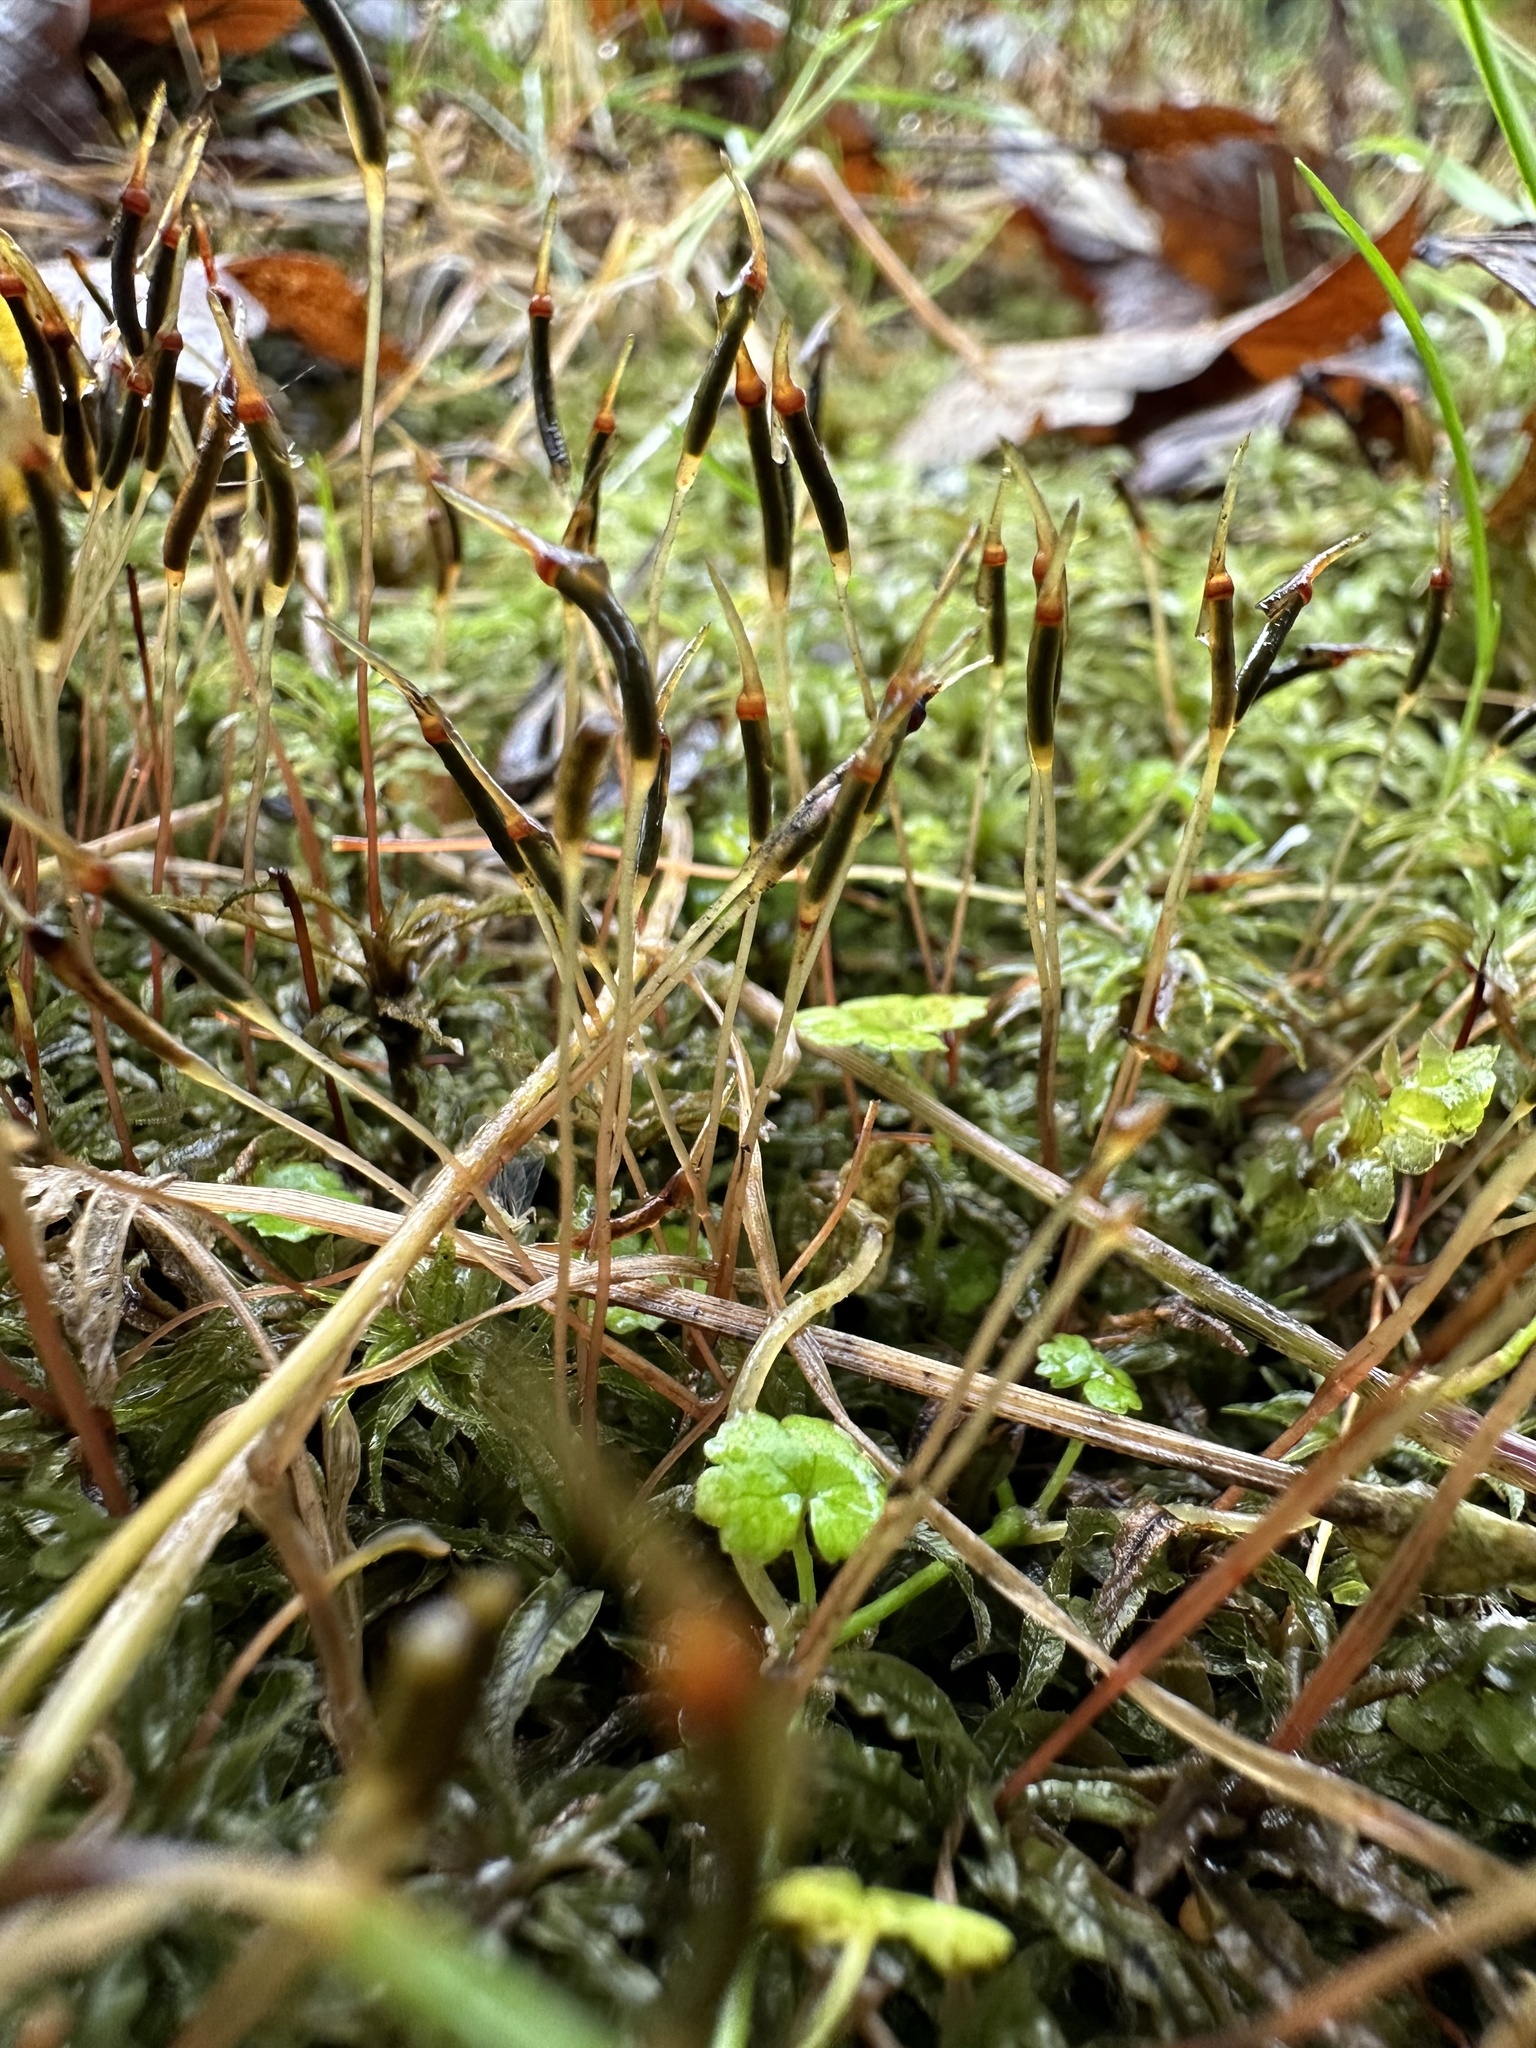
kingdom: Plantae
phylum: Bryophyta
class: Polytrichopsida
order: Polytrichales
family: Polytrichaceae
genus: Atrichum
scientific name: Atrichum androgynum
